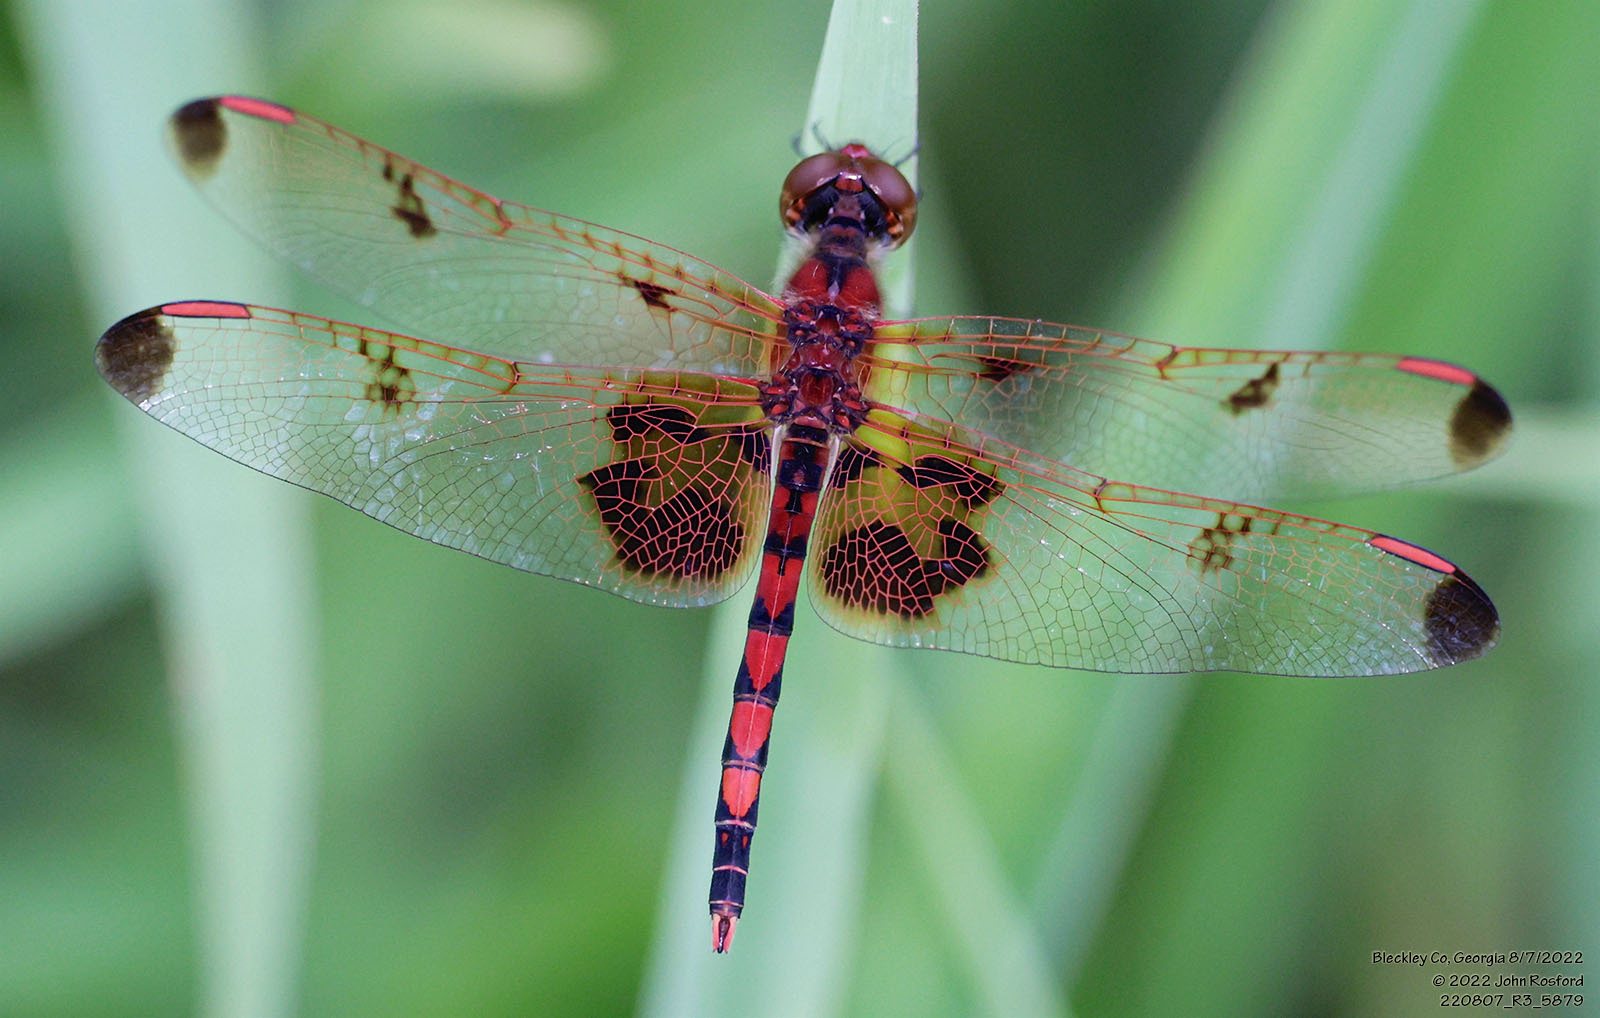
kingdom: Animalia
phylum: Arthropoda
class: Insecta
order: Odonata
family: Libellulidae
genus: Celithemis
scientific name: Celithemis elisa
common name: Calico pennant
